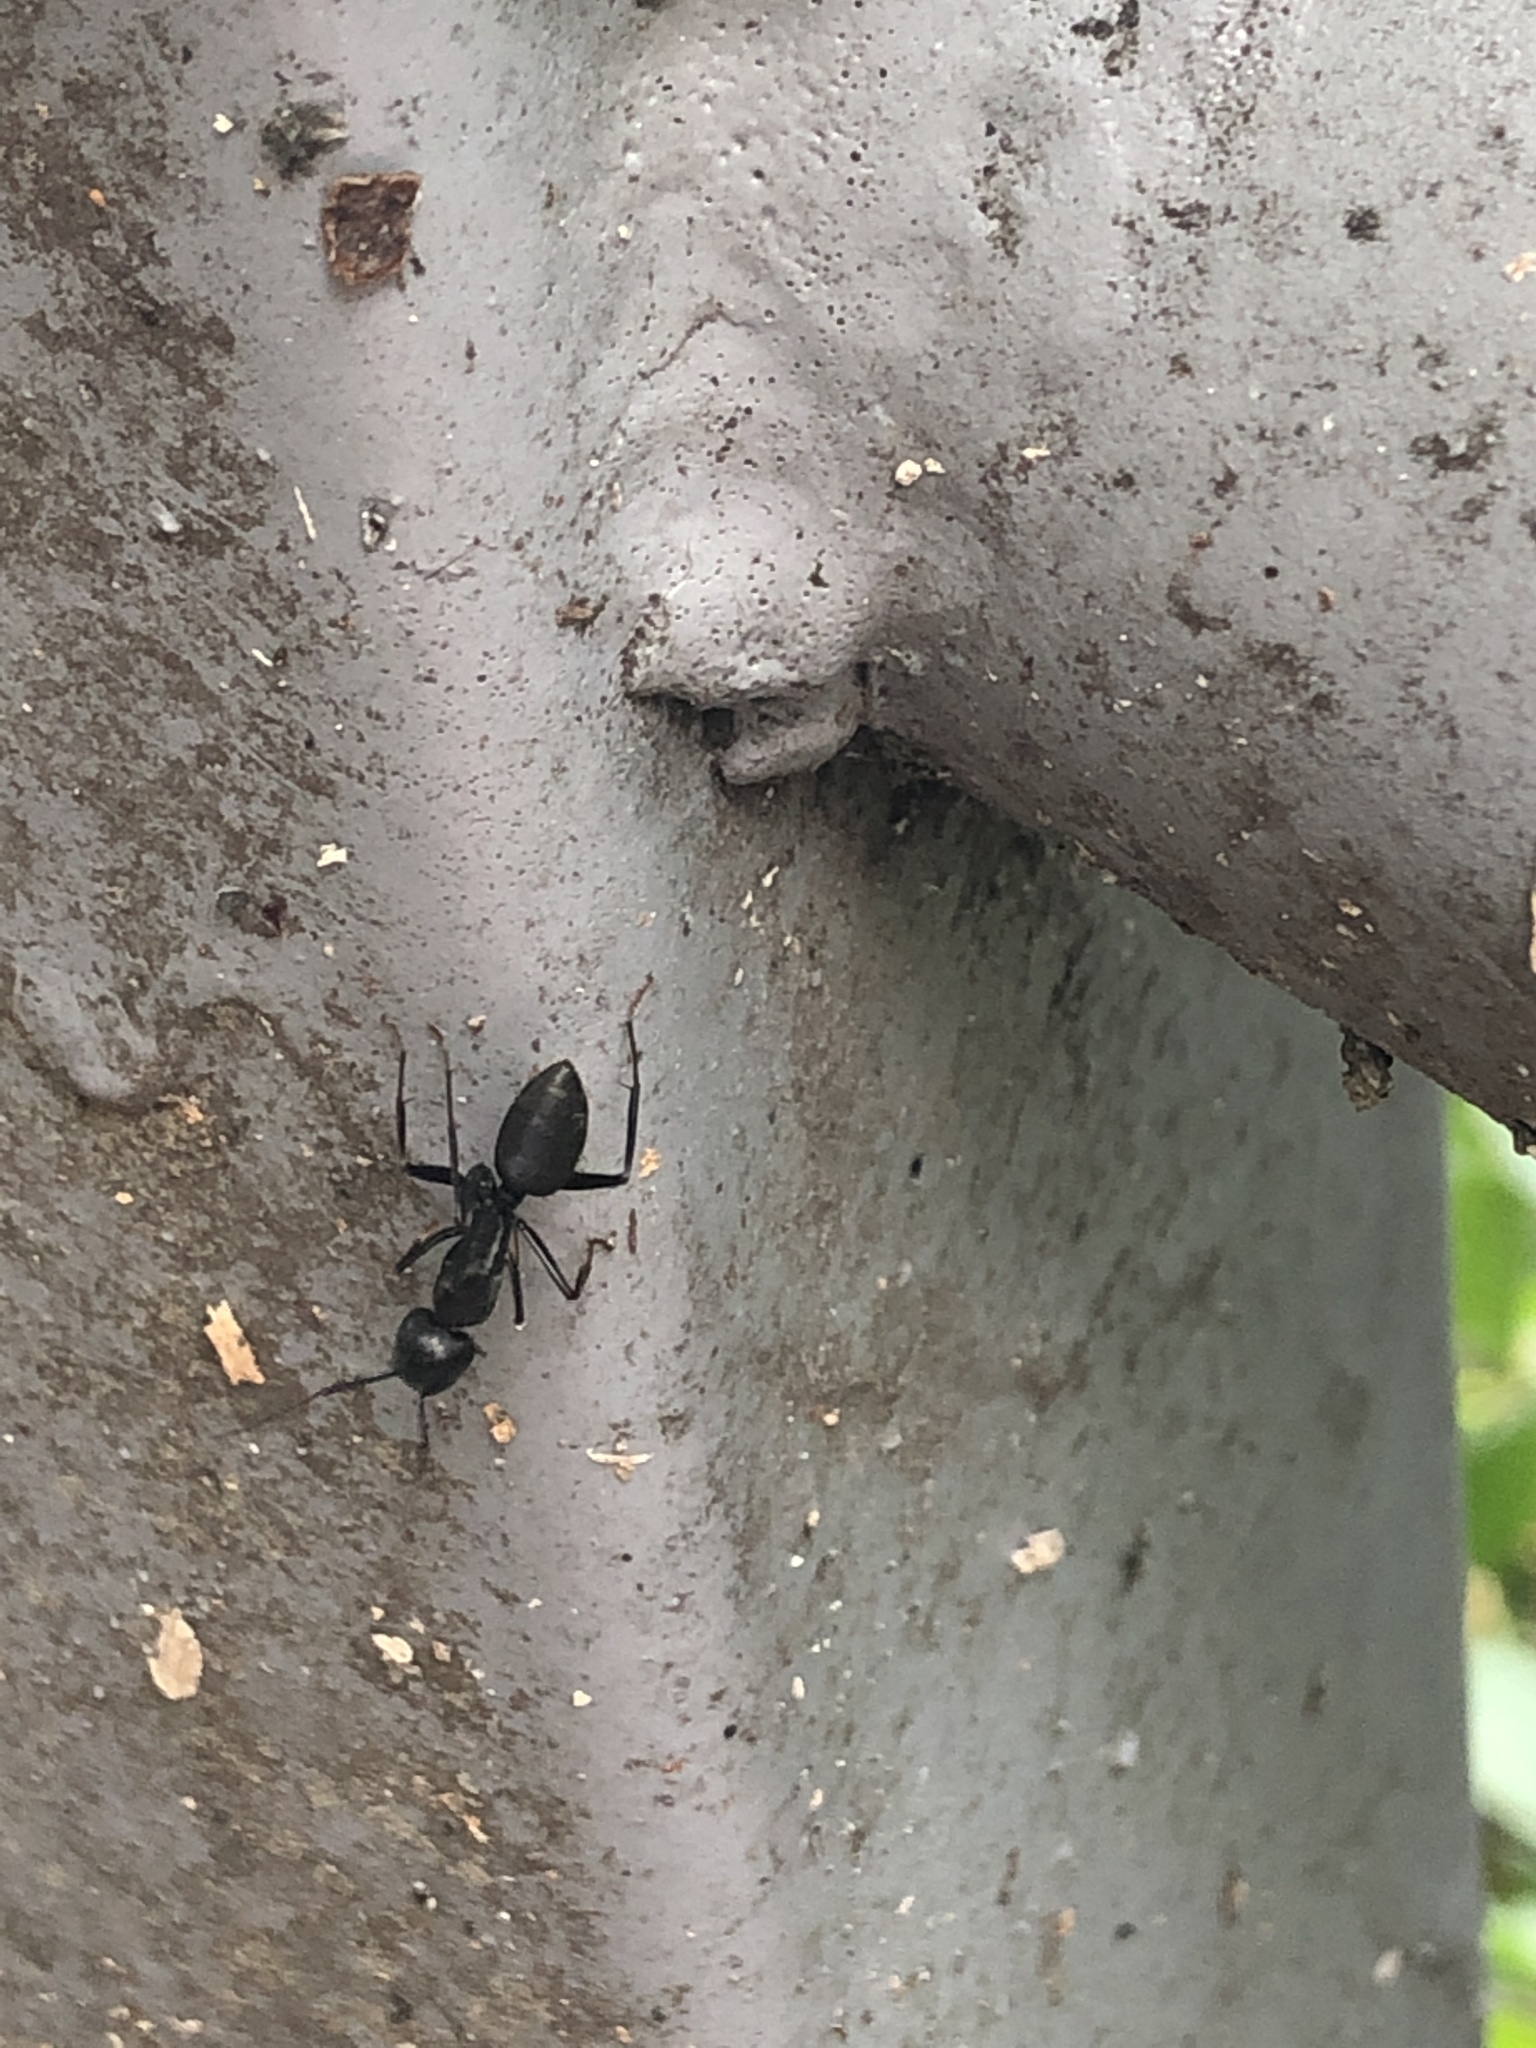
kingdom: Animalia
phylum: Arthropoda
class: Insecta
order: Hymenoptera
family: Formicidae
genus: Camponotus
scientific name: Camponotus japonicus
